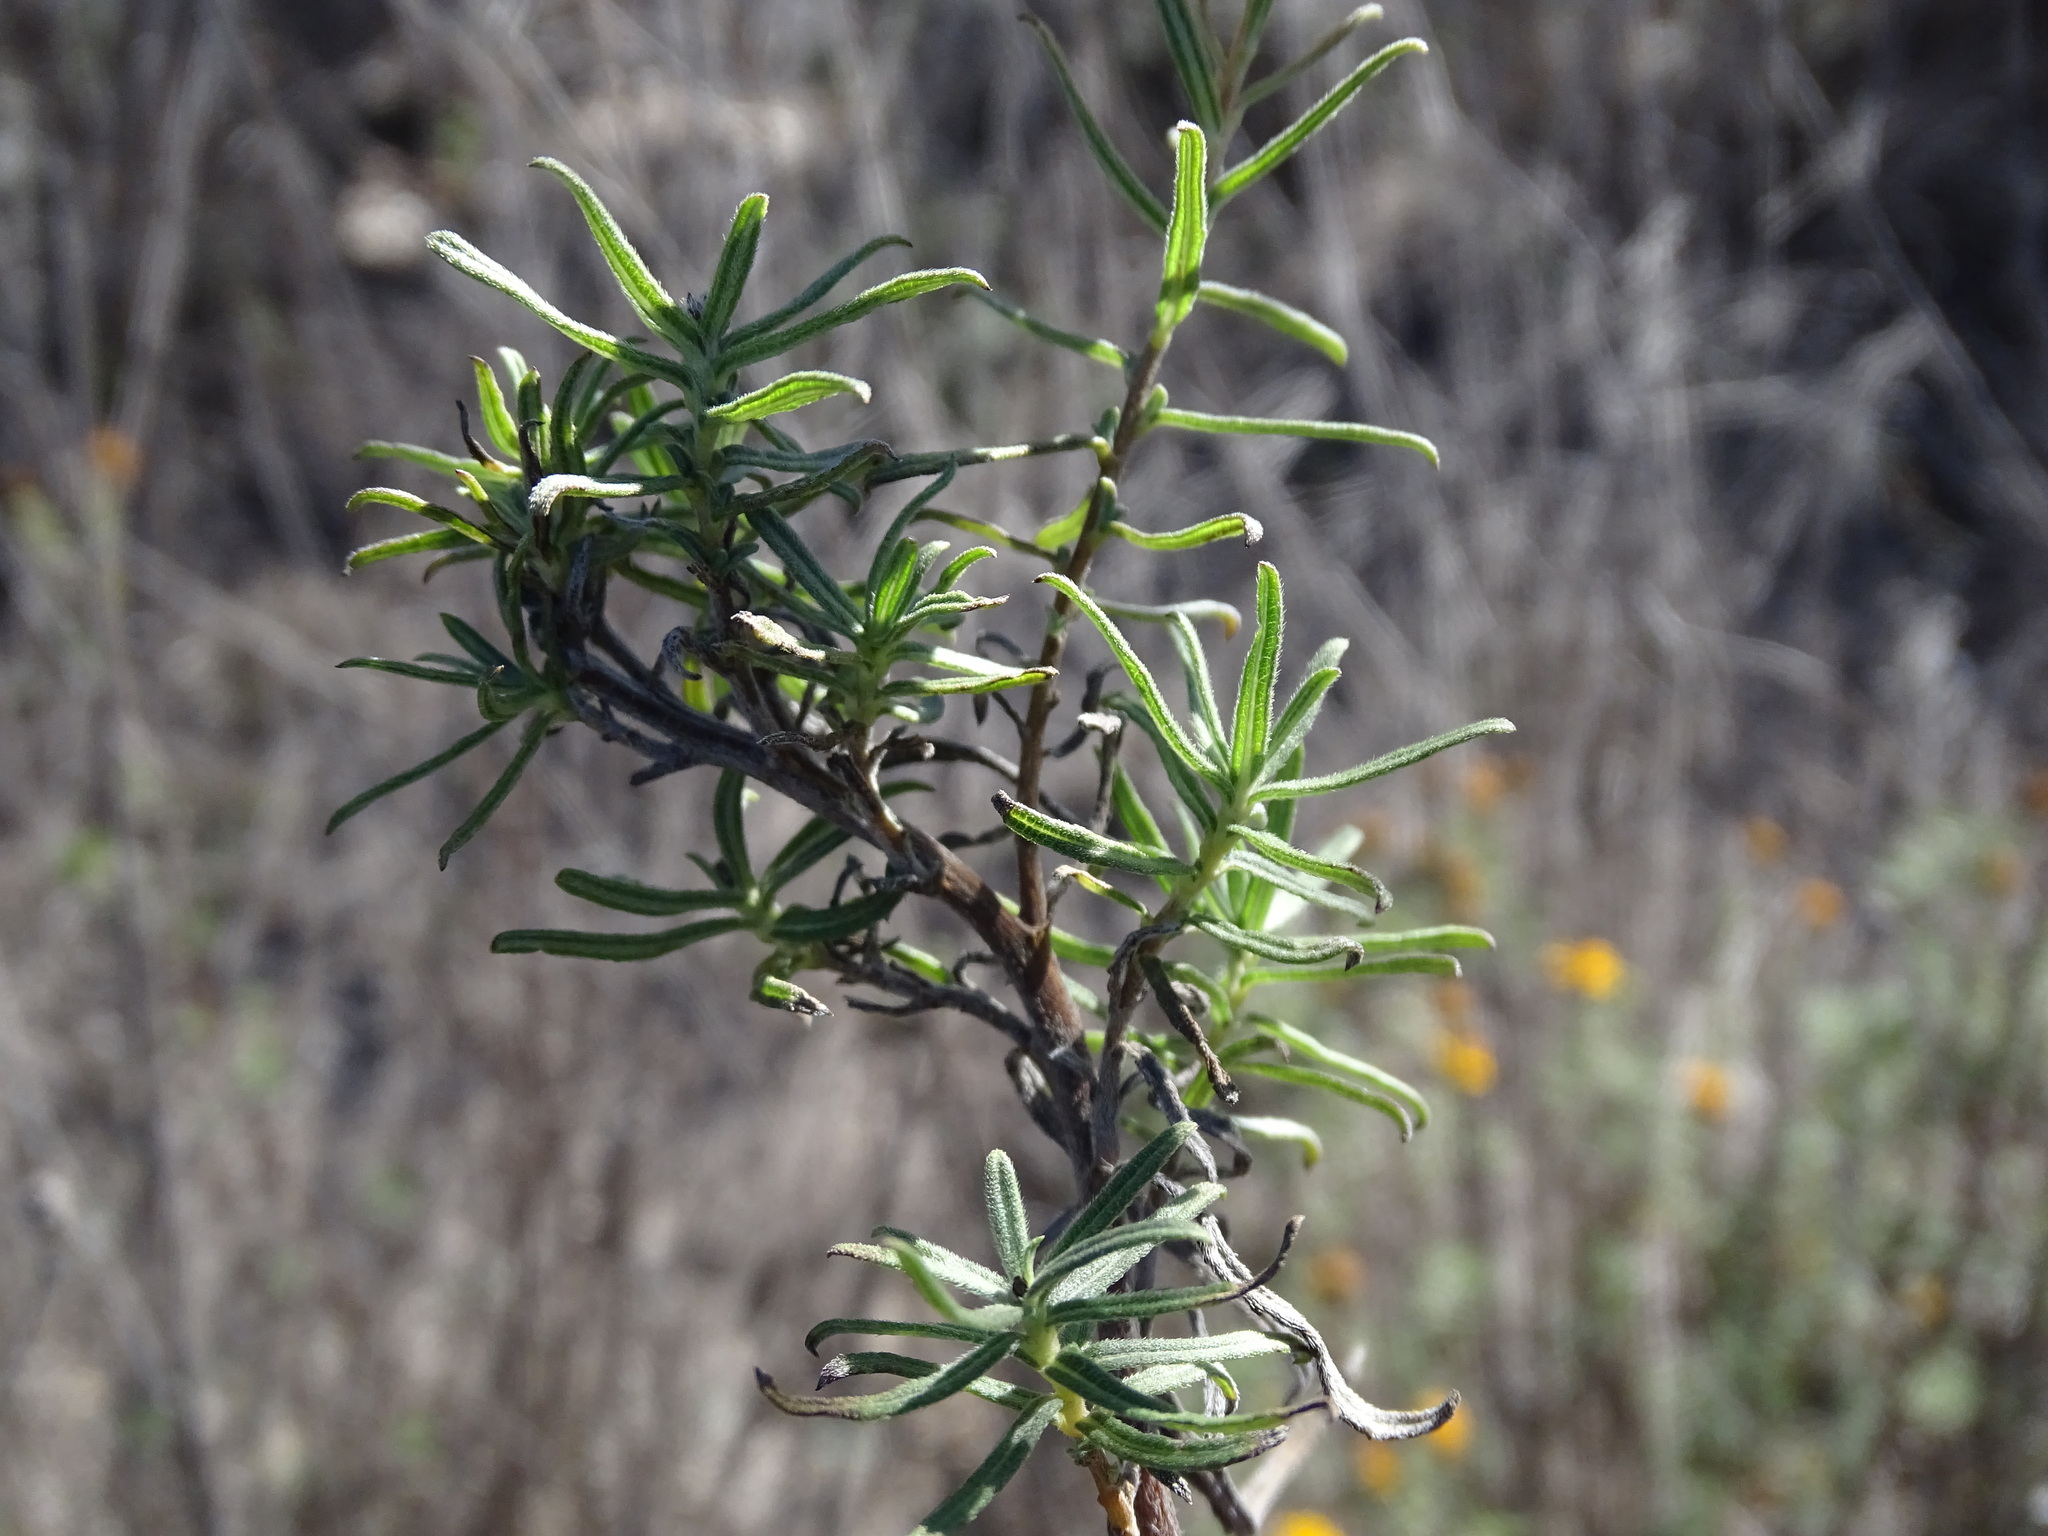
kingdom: Plantae
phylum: Tracheophyta
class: Magnoliopsida
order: Asterales
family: Asteraceae
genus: Aldama
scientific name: Aldama linearis
